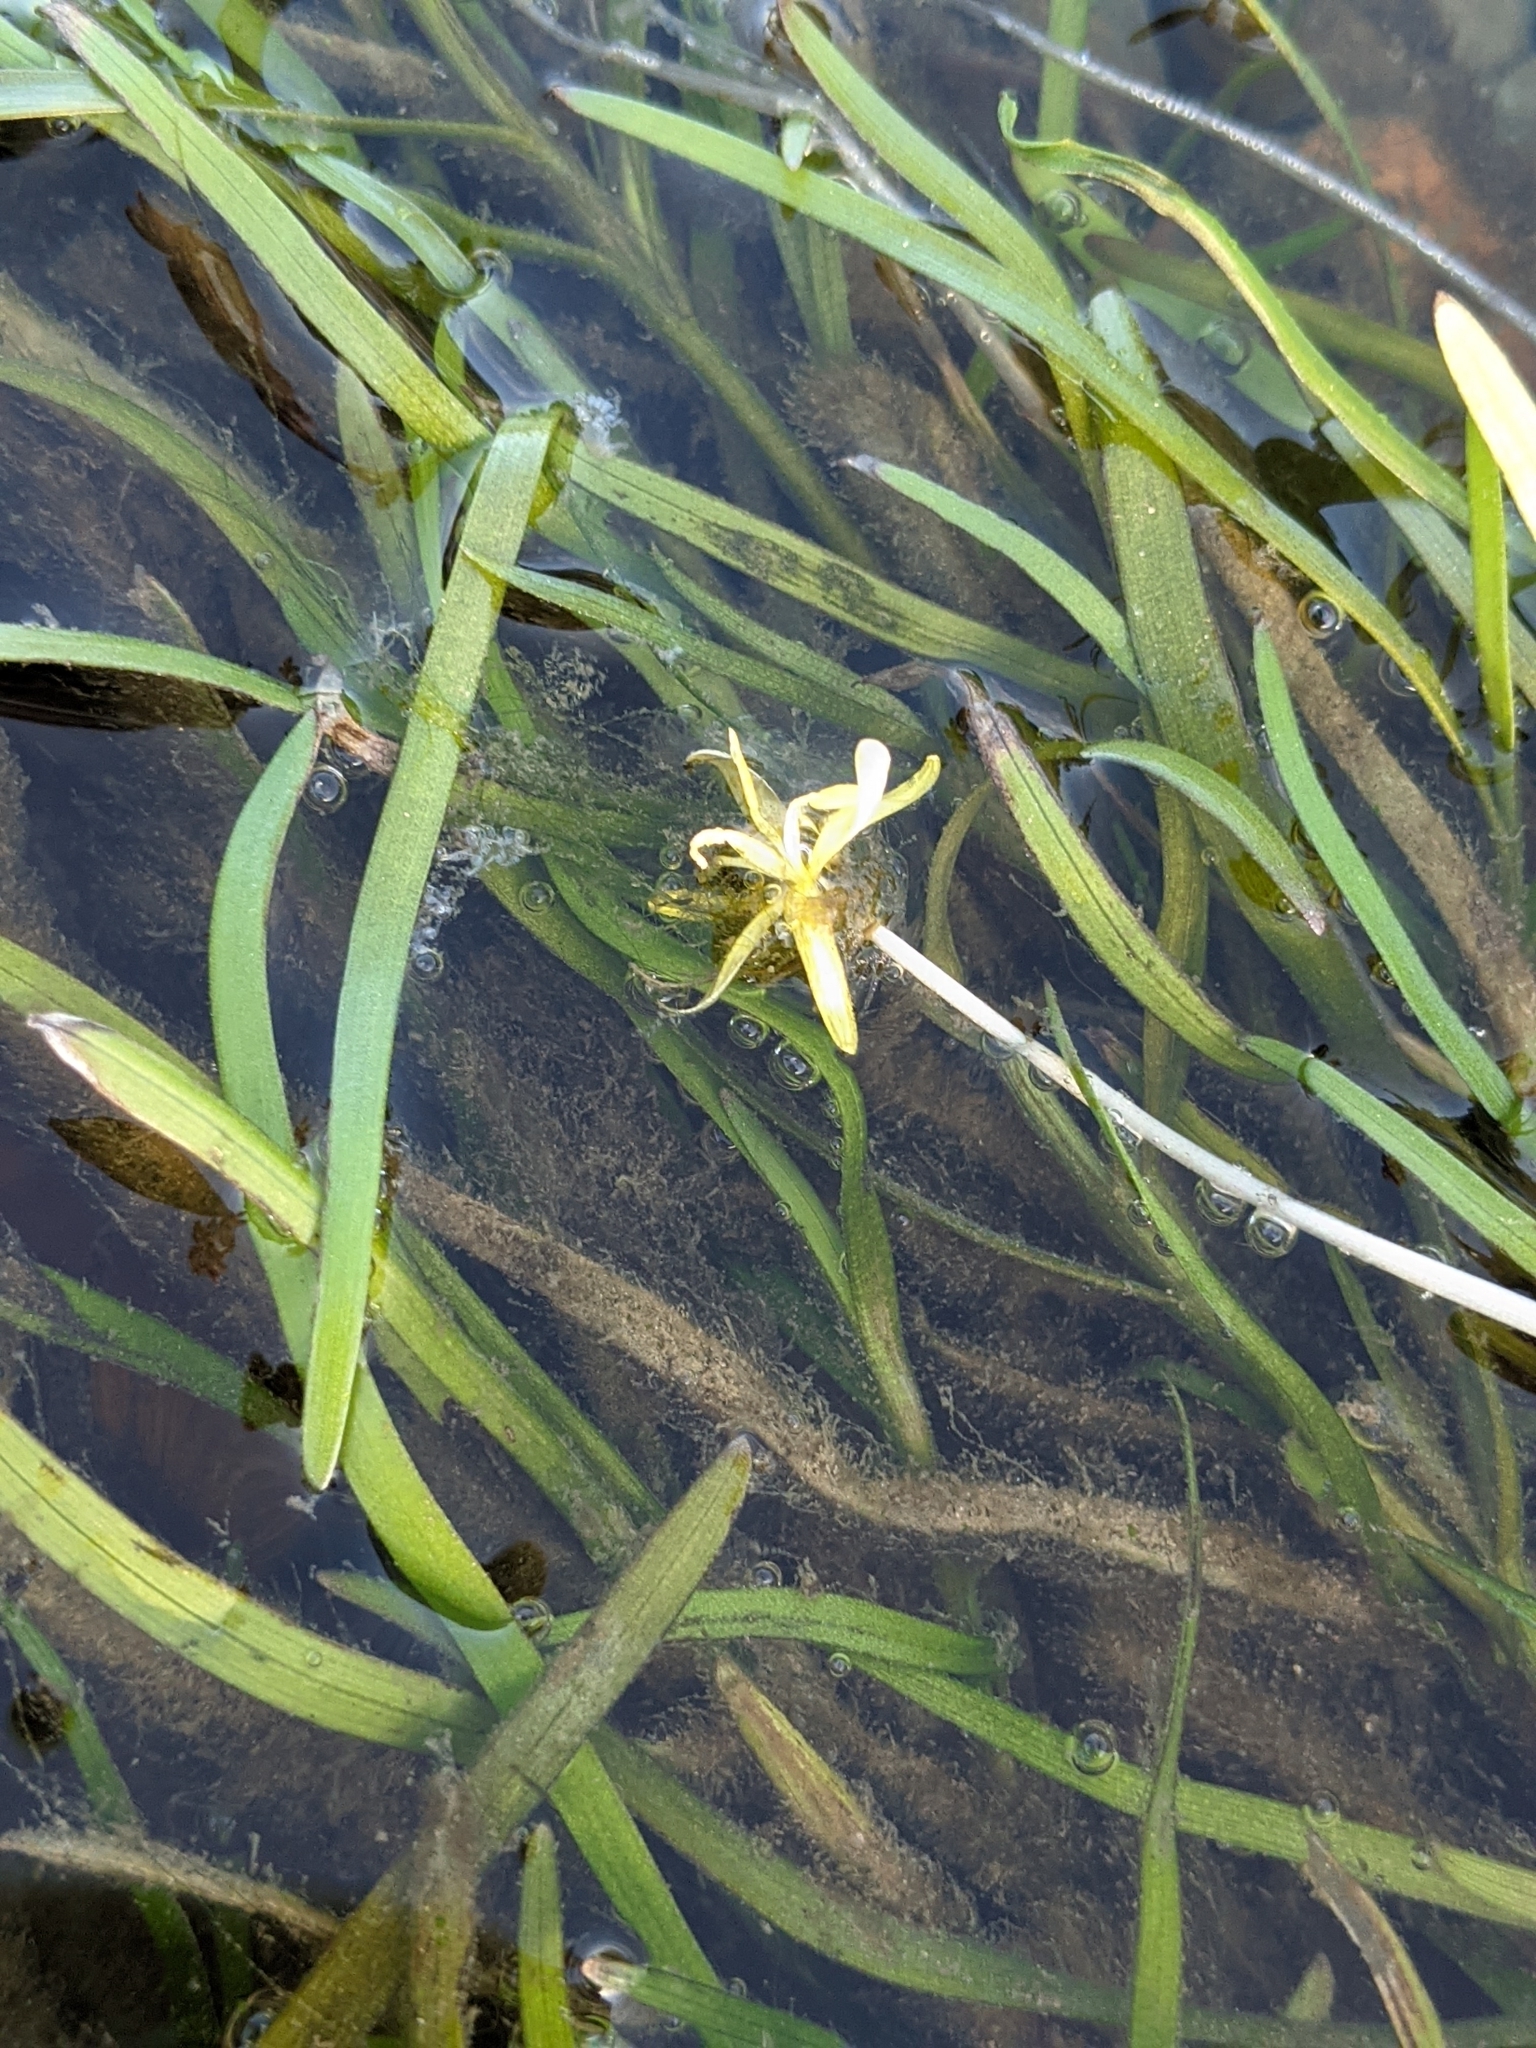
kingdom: Plantae
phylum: Tracheophyta
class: Liliopsida
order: Commelinales
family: Pontederiaceae
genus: Heteranthera
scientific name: Heteranthera dubia
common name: Grass-leaved mud plantain
